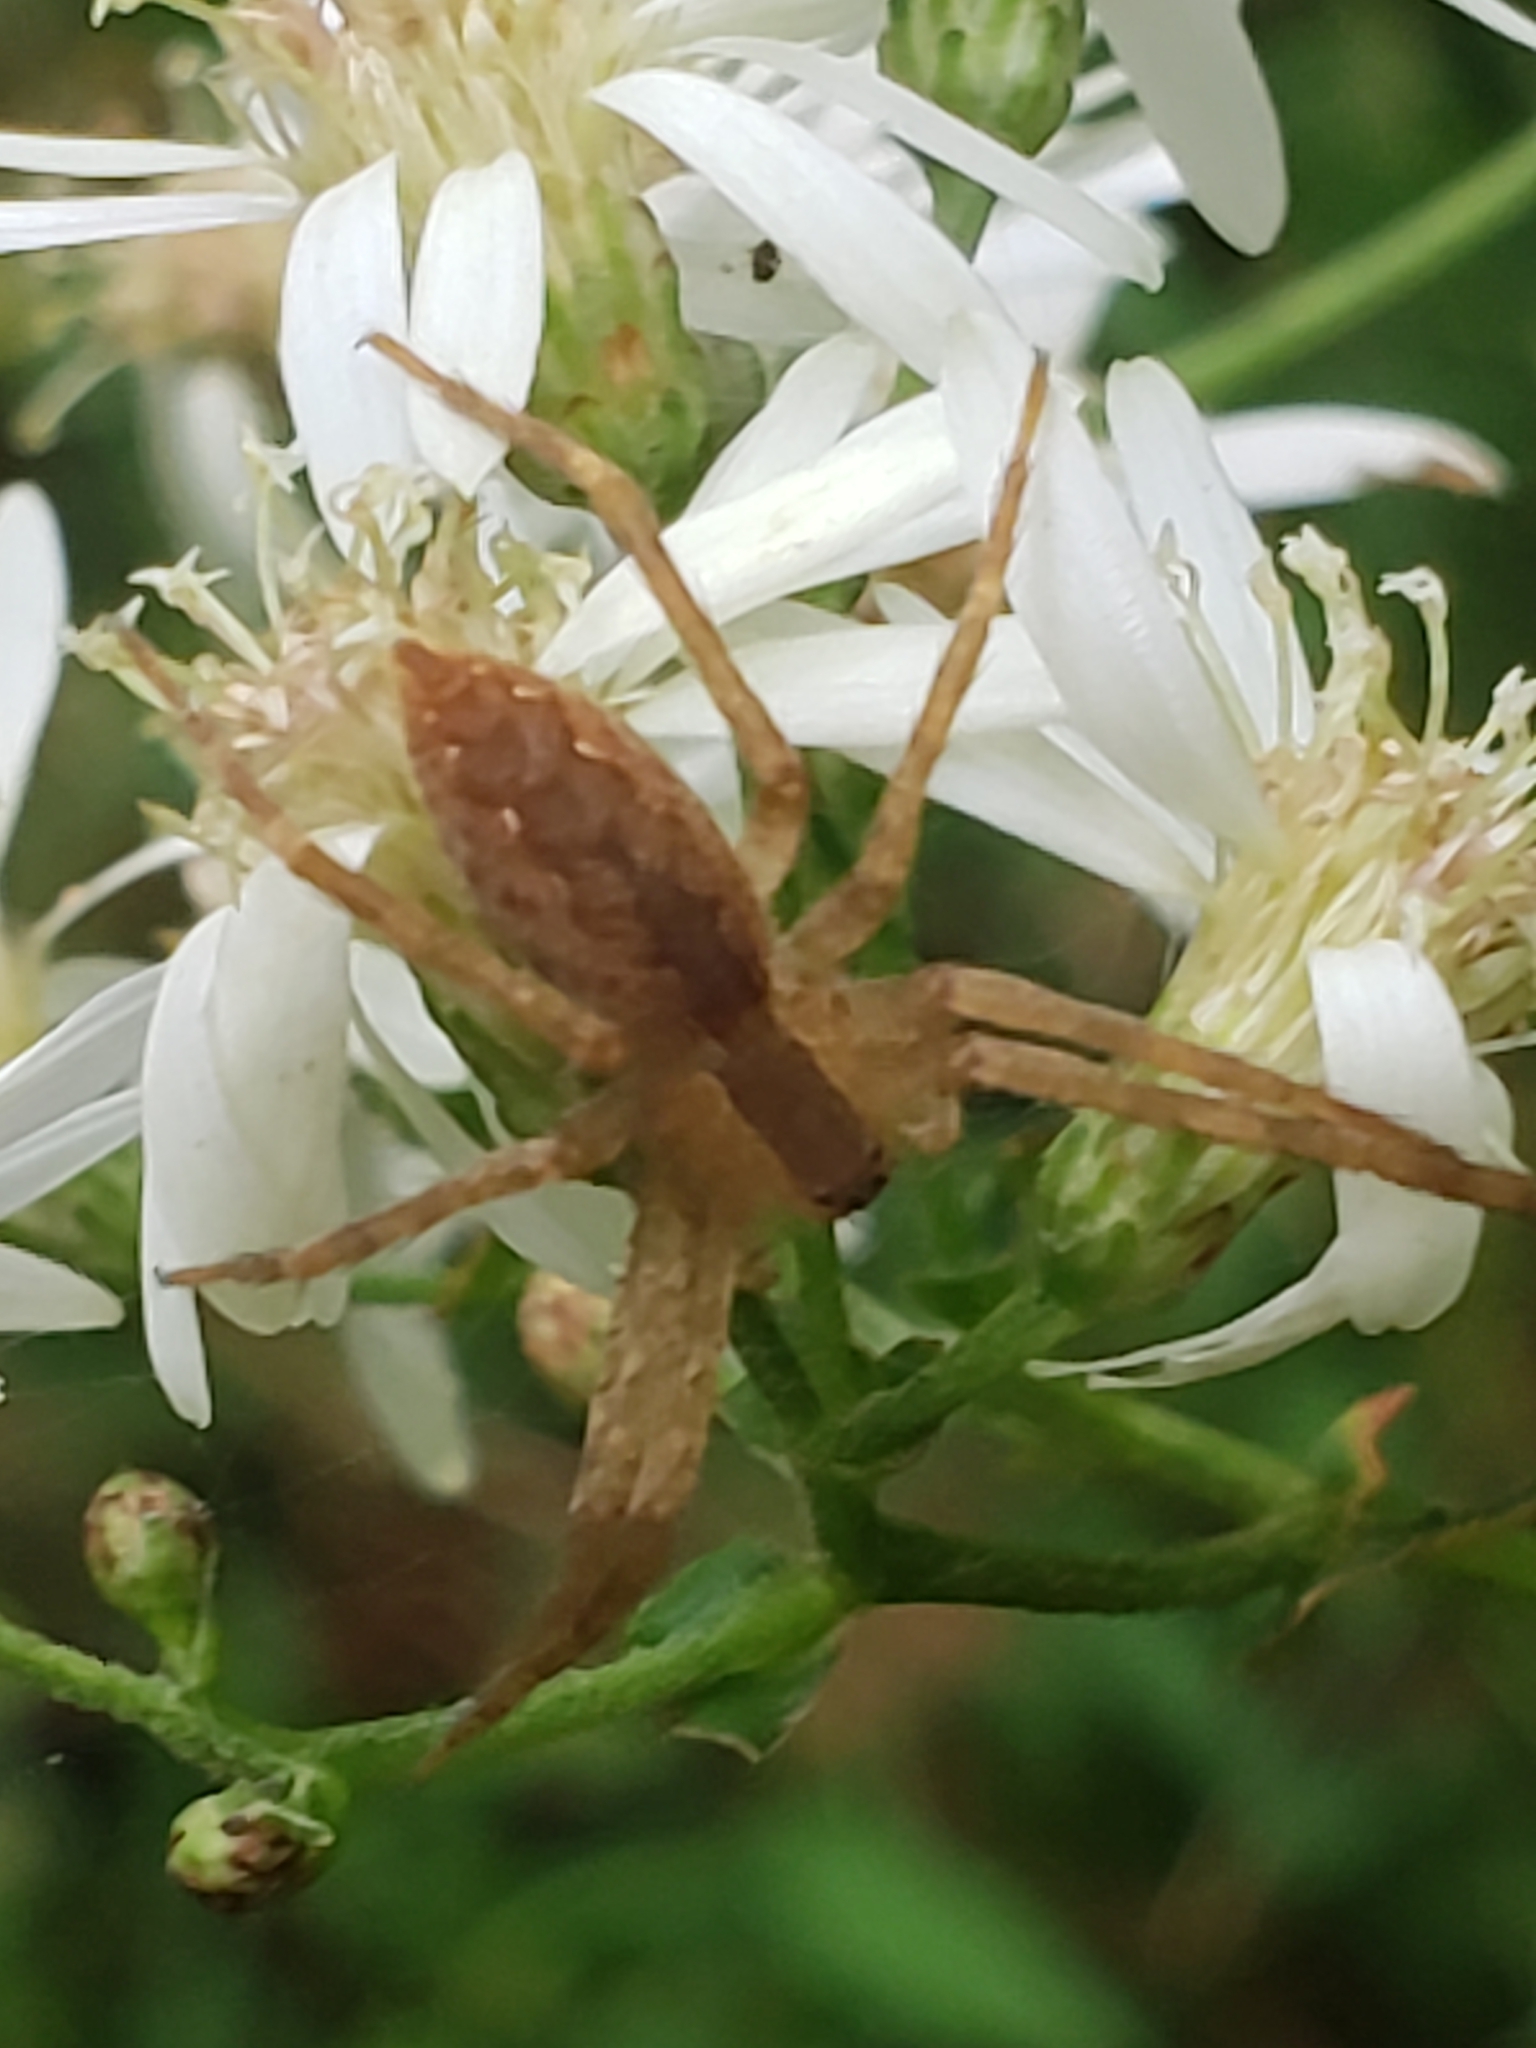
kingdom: Animalia
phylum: Arthropoda
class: Arachnida
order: Araneae
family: Pisauridae
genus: Pisaurina
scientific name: Pisaurina mira
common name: American nursery web spider
